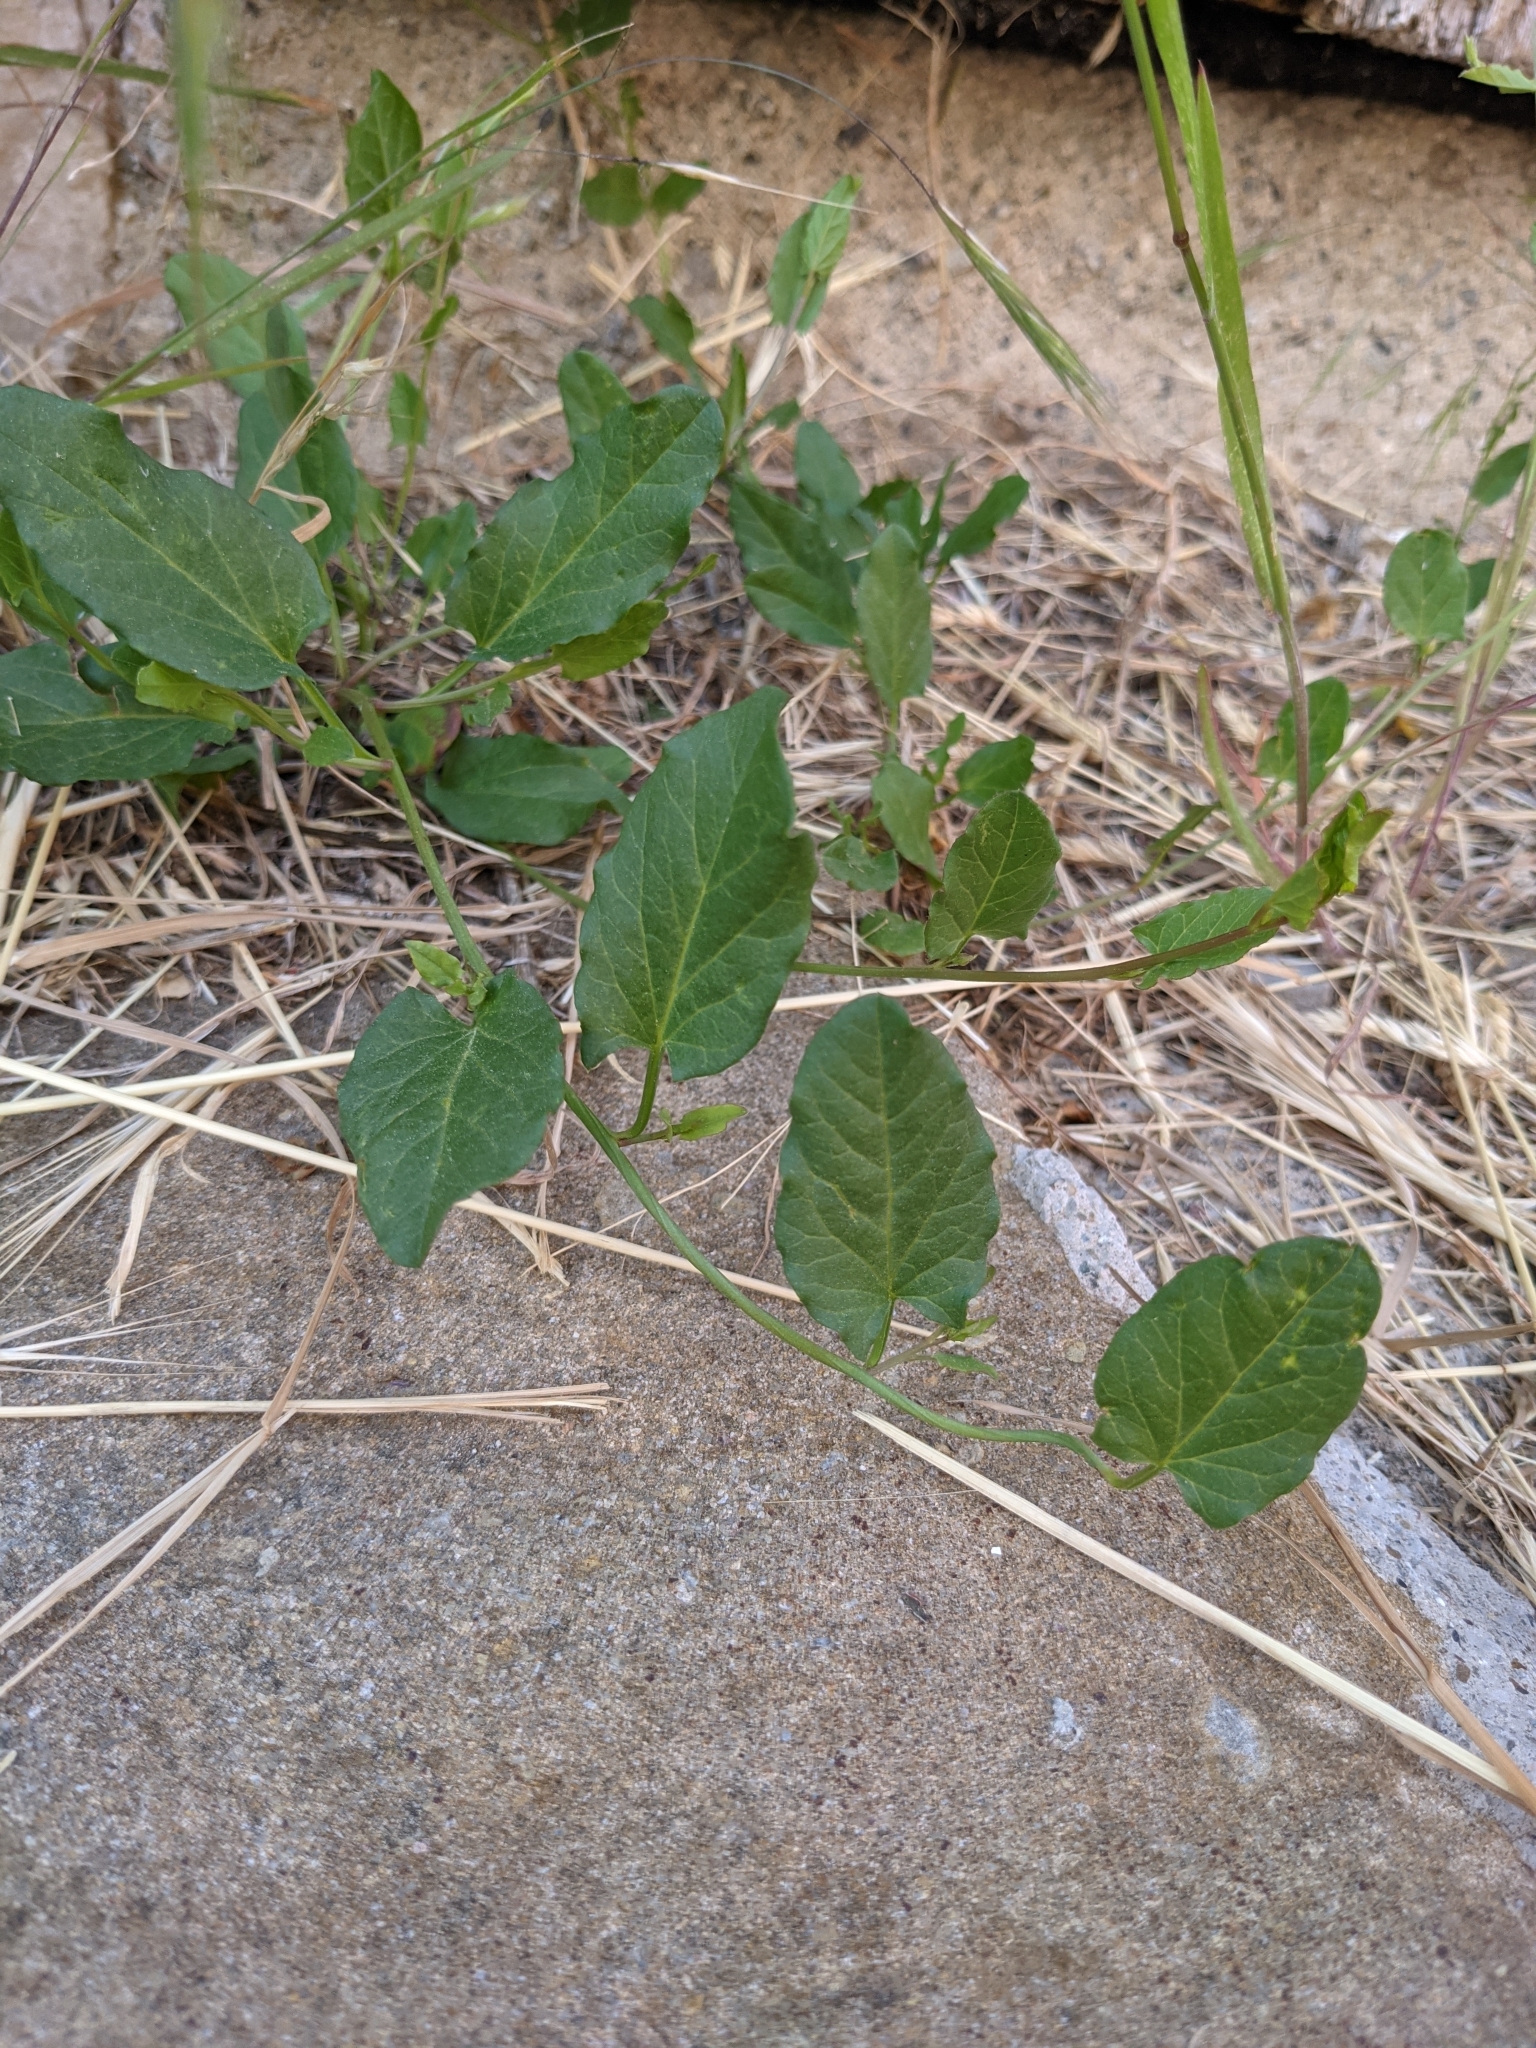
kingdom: Plantae
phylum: Tracheophyta
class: Magnoliopsida
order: Solanales
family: Convolvulaceae
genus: Convolvulus
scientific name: Convolvulus arvensis
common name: Field bindweed
